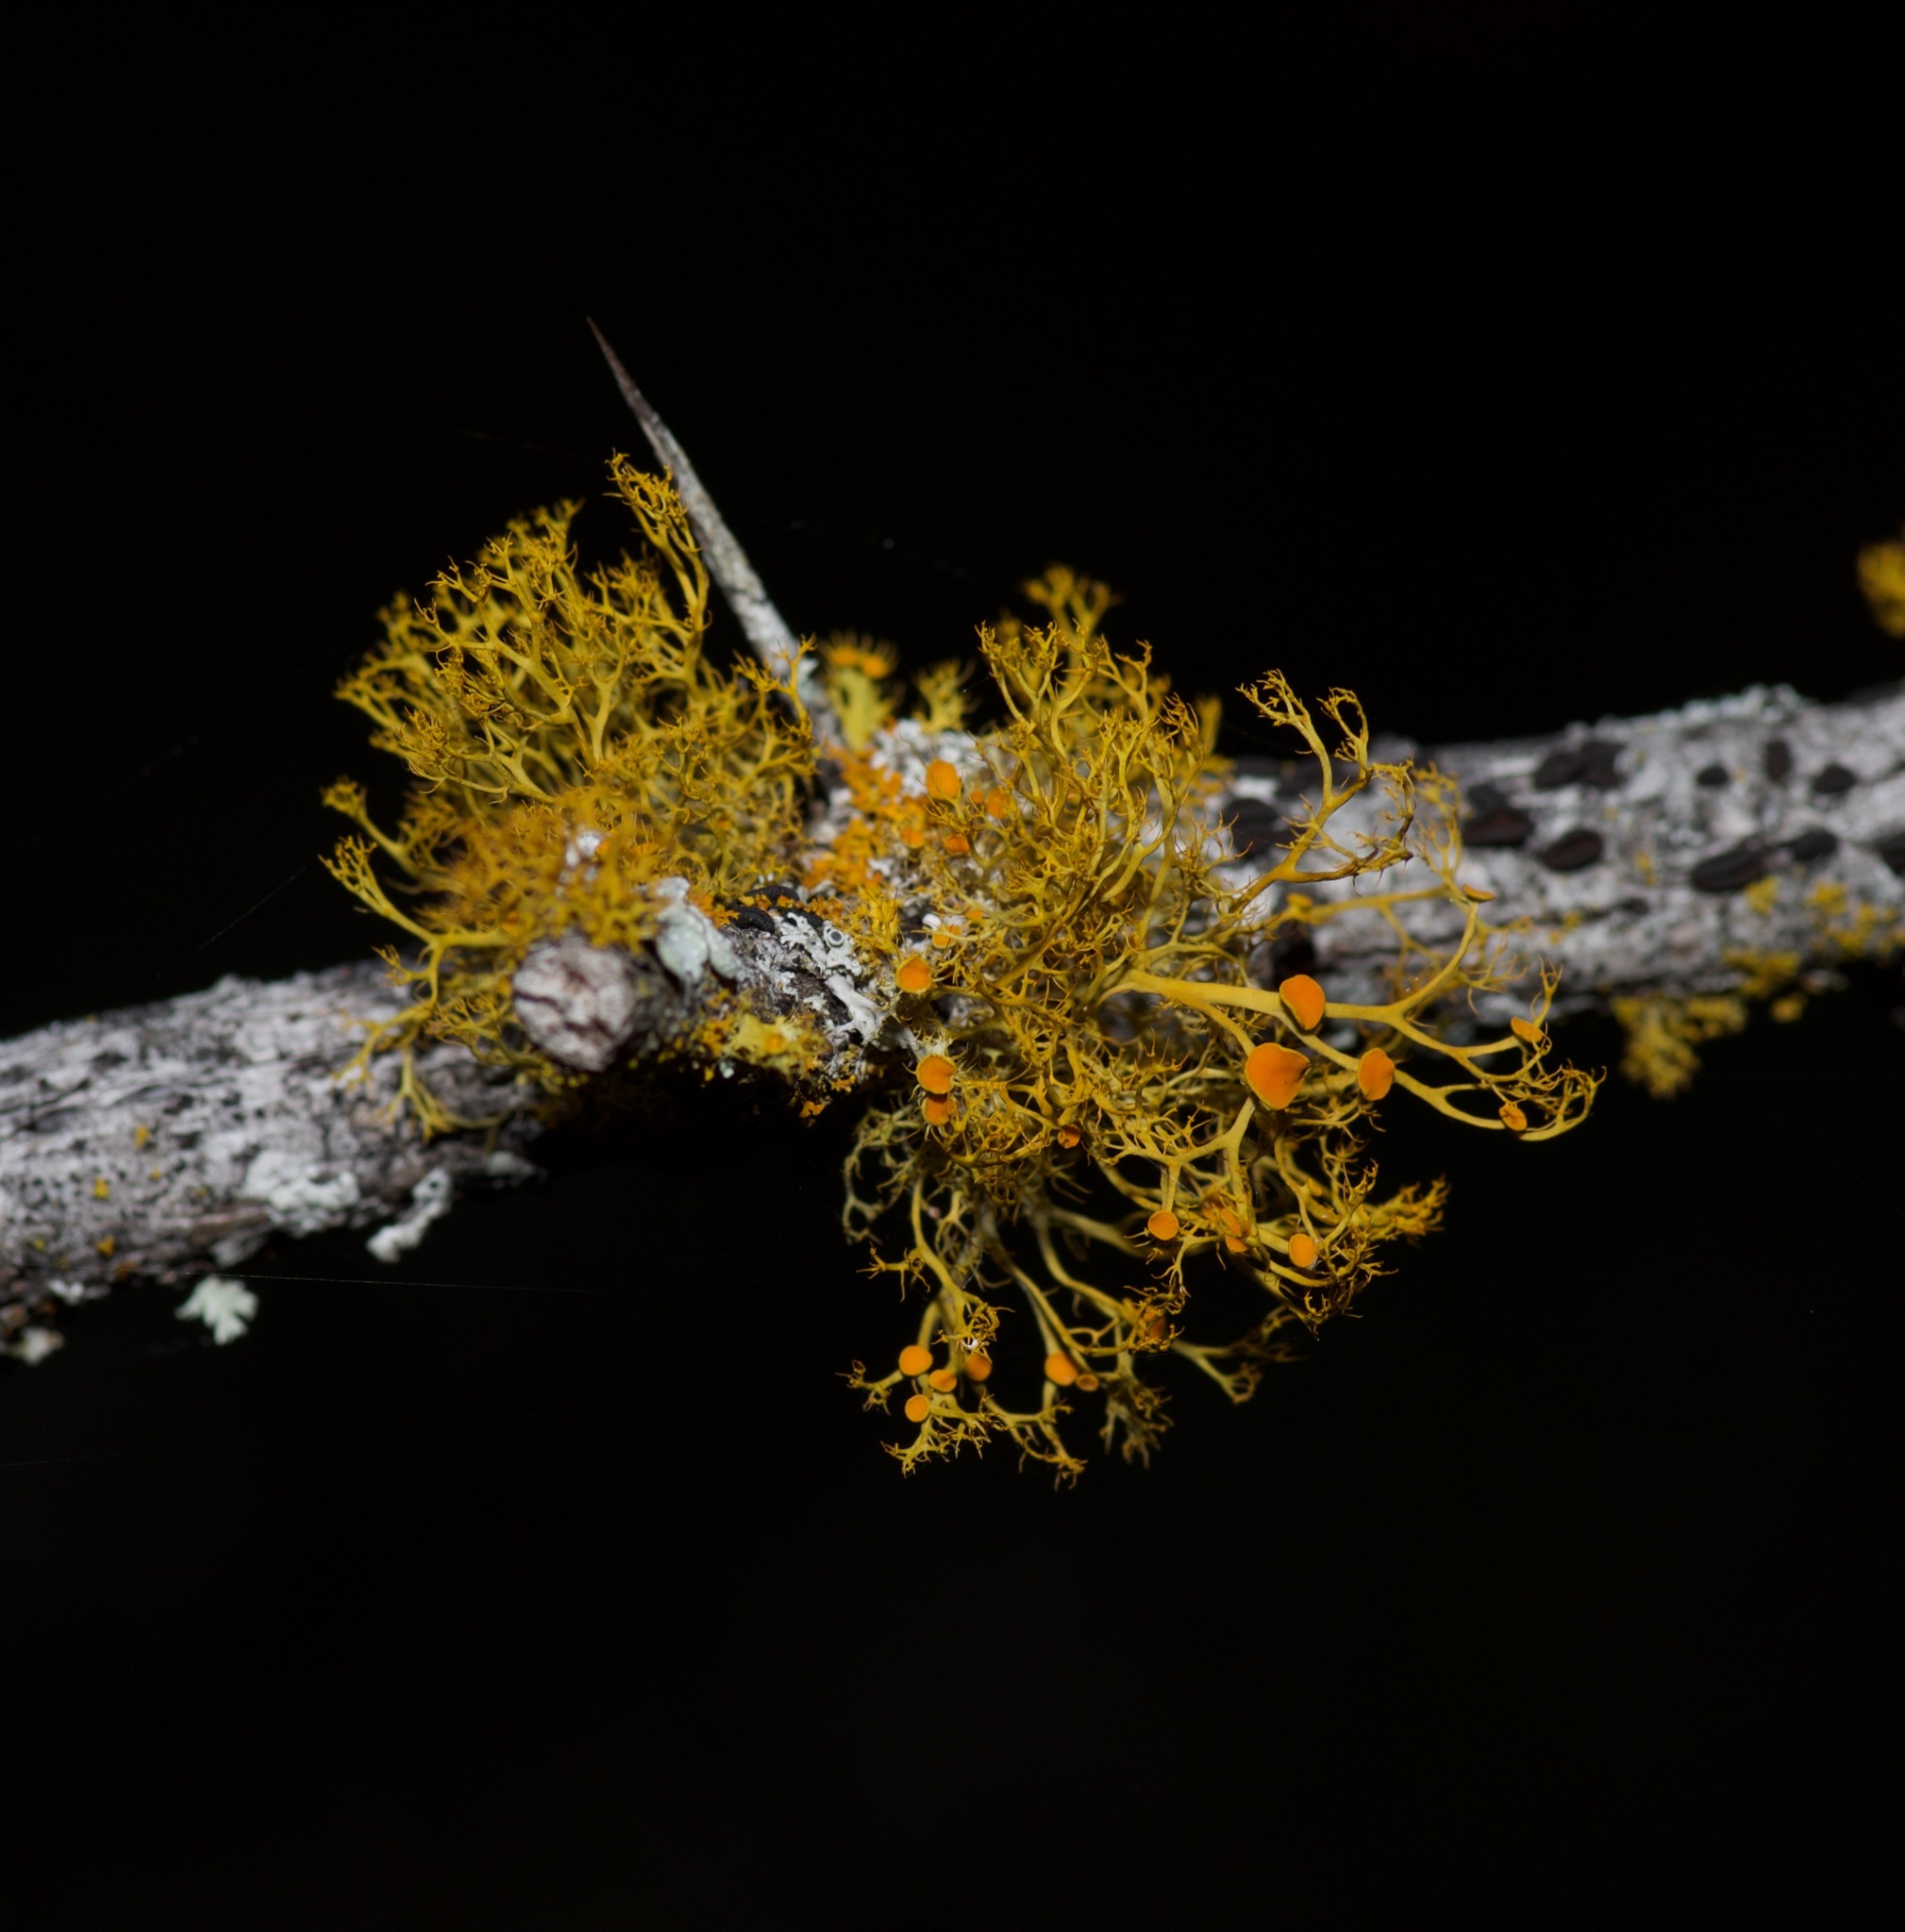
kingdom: Fungi
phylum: Ascomycota
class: Lecanoromycetes
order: Teloschistales
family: Teloschistaceae
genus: Teloschistes
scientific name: Teloschistes exilis
